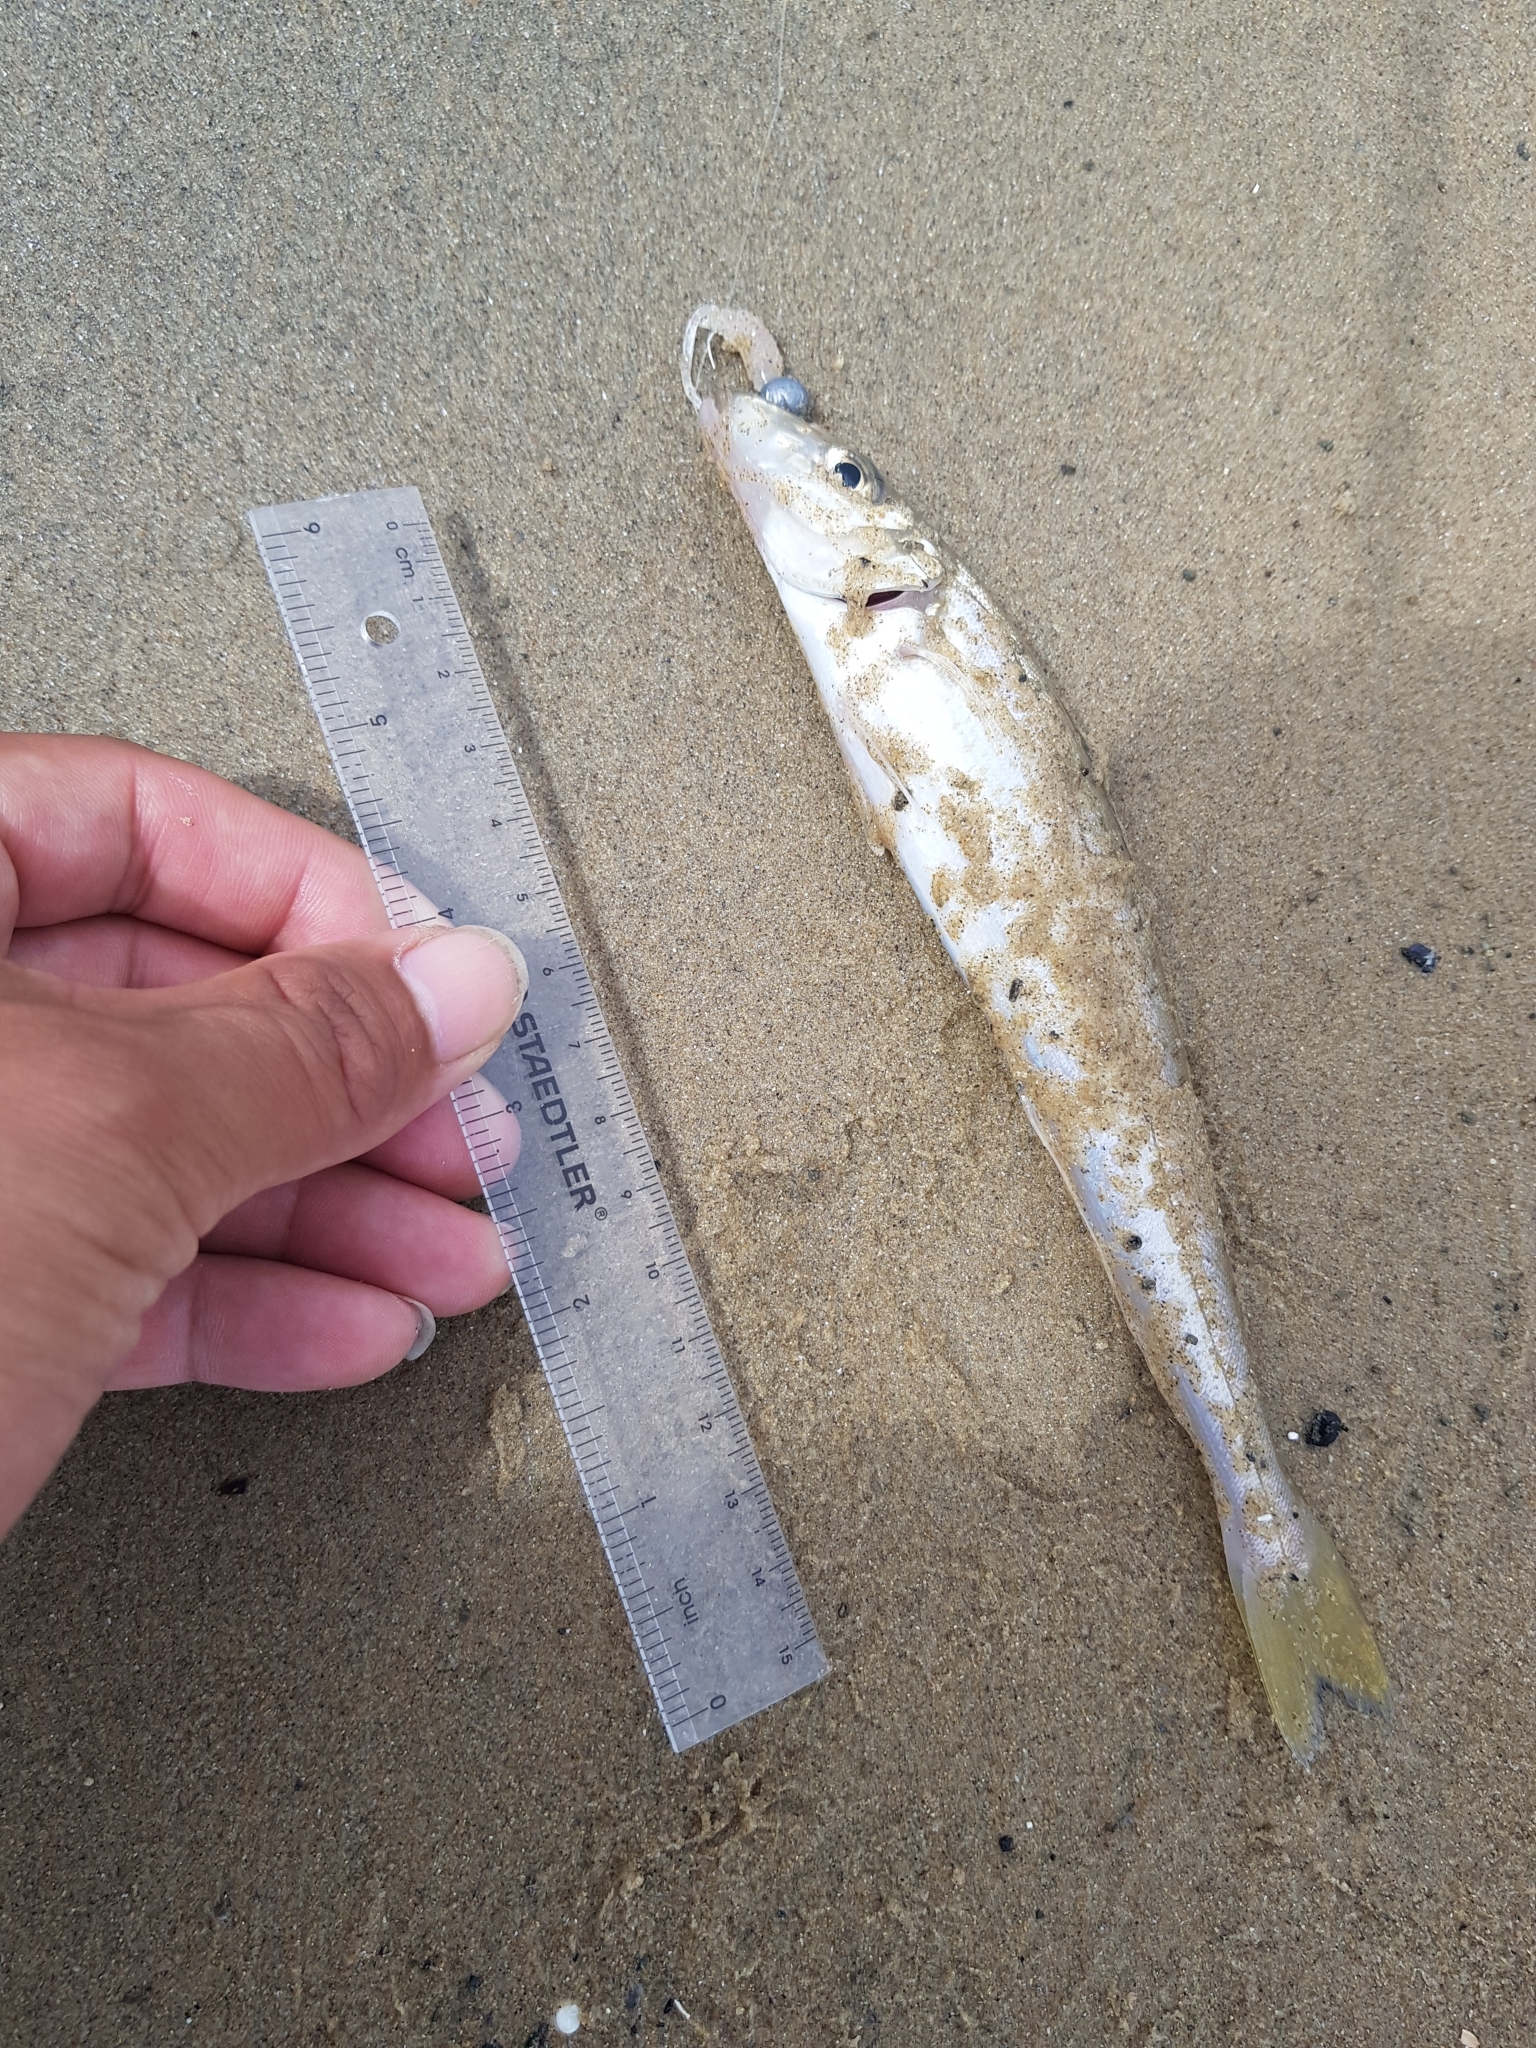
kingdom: Animalia
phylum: Chordata
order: Perciformes
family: Sillaginidae
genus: Sillaginodes
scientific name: Sillaginodes punctatus
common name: King george whiting
